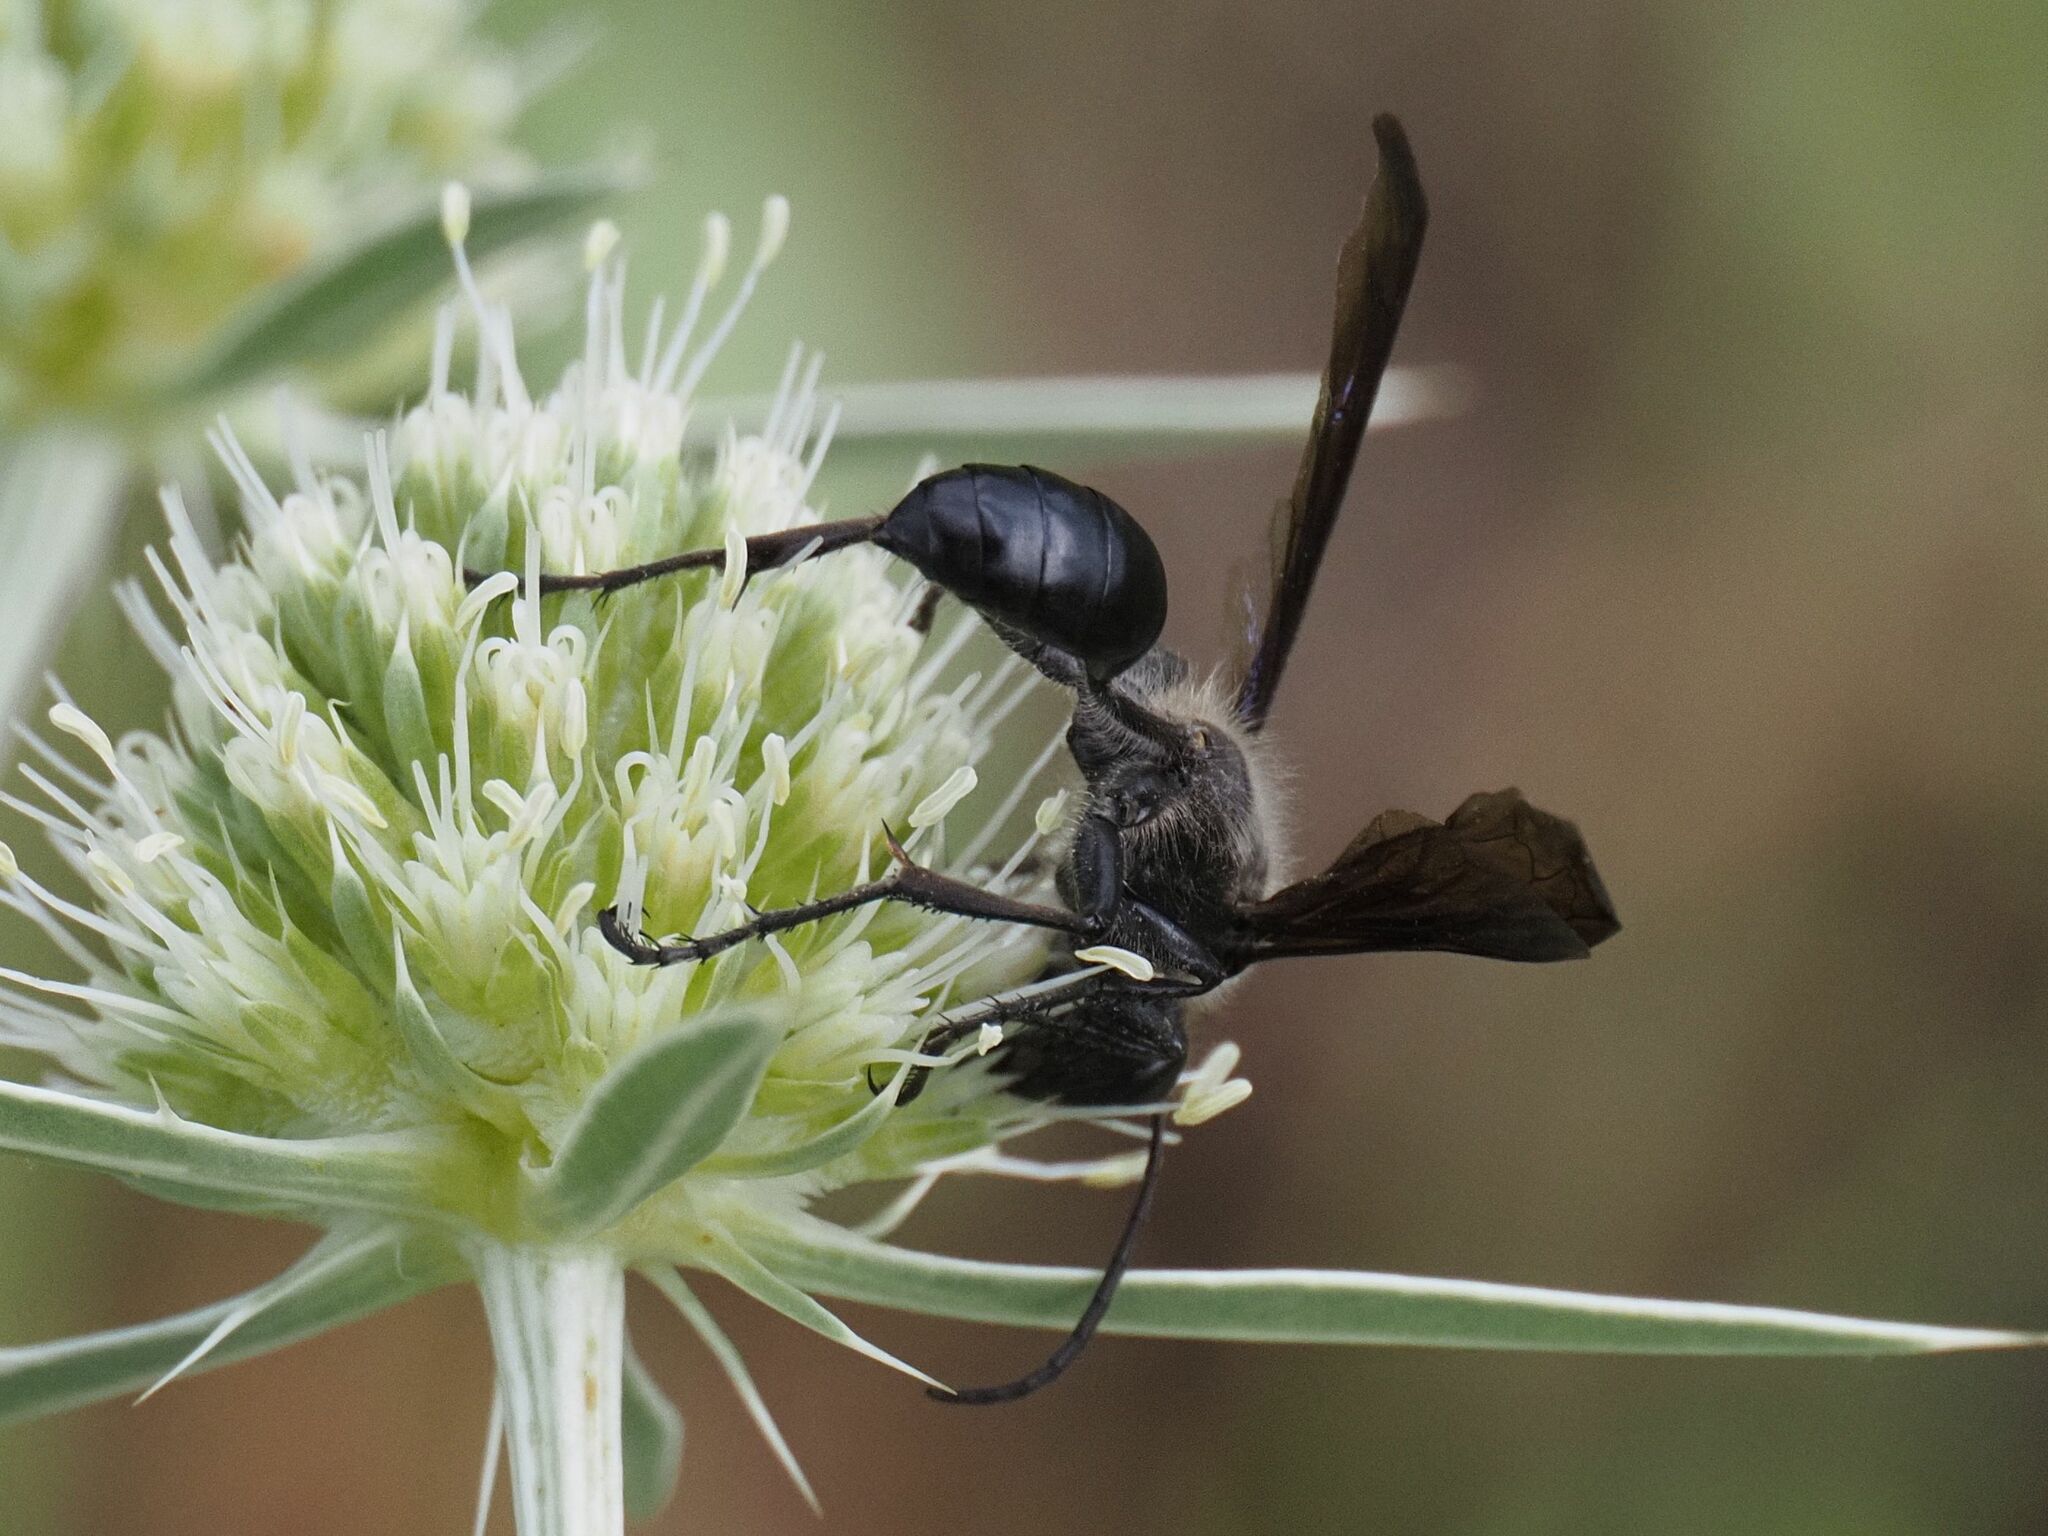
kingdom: Animalia
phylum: Arthropoda
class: Insecta
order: Hymenoptera
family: Sphecidae
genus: Isodontia
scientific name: Isodontia mexicana
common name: Mud dauber
